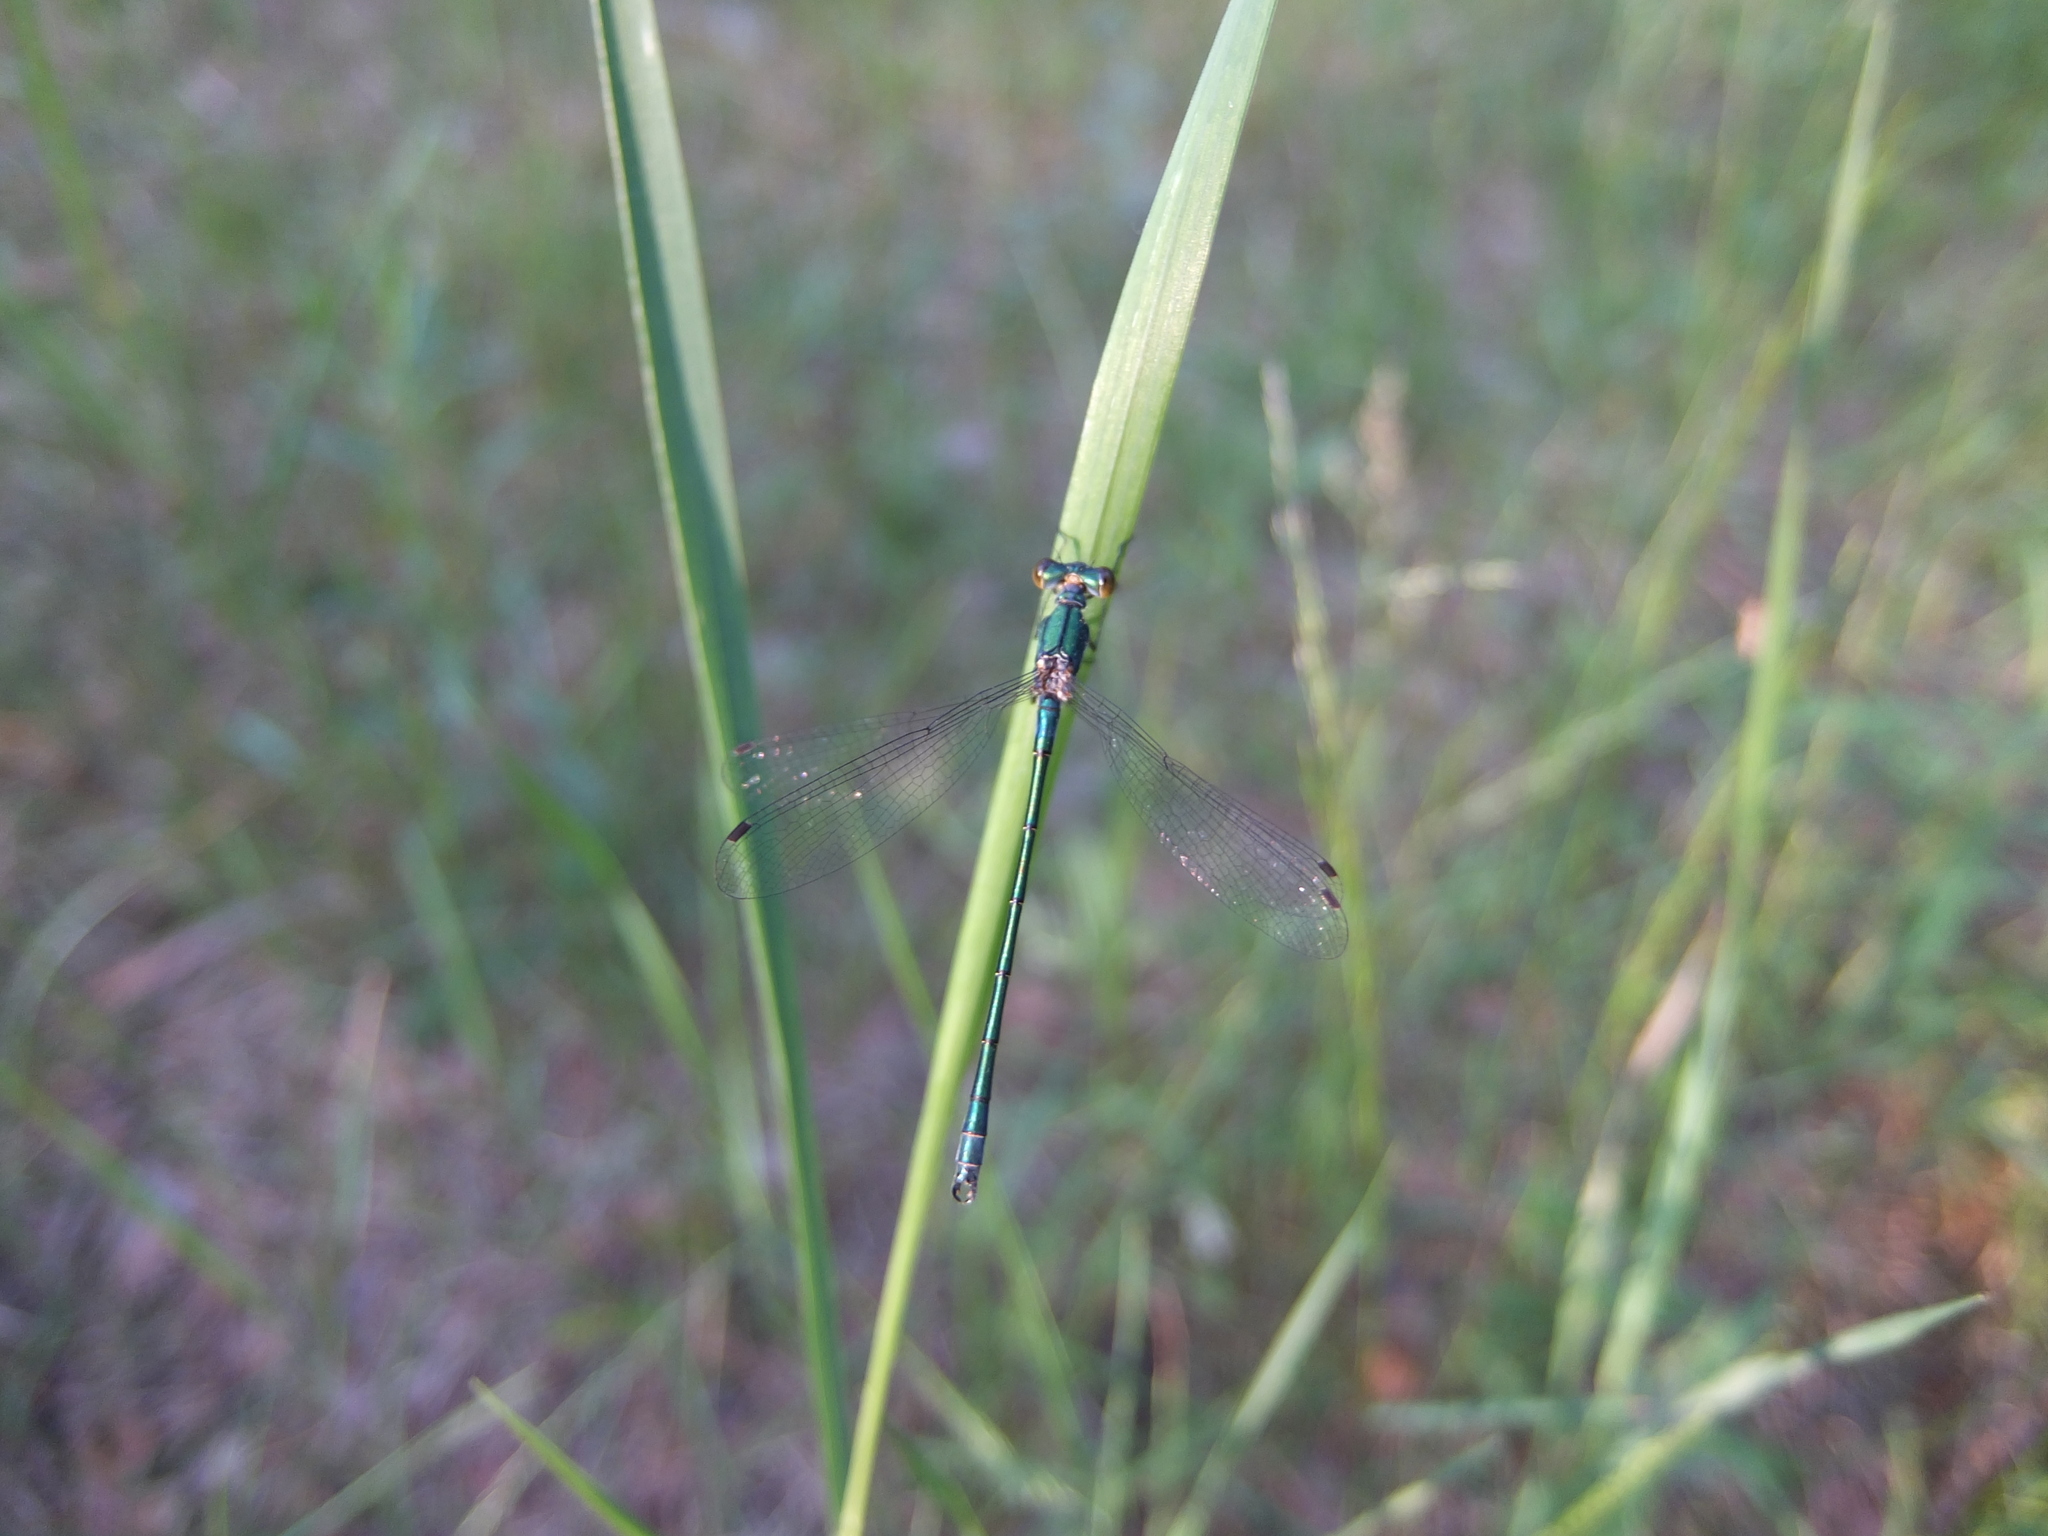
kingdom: Animalia
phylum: Arthropoda
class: Insecta
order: Odonata
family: Lestidae
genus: Lestes
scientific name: Lestes dryas
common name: Scarce emerald damselfly
